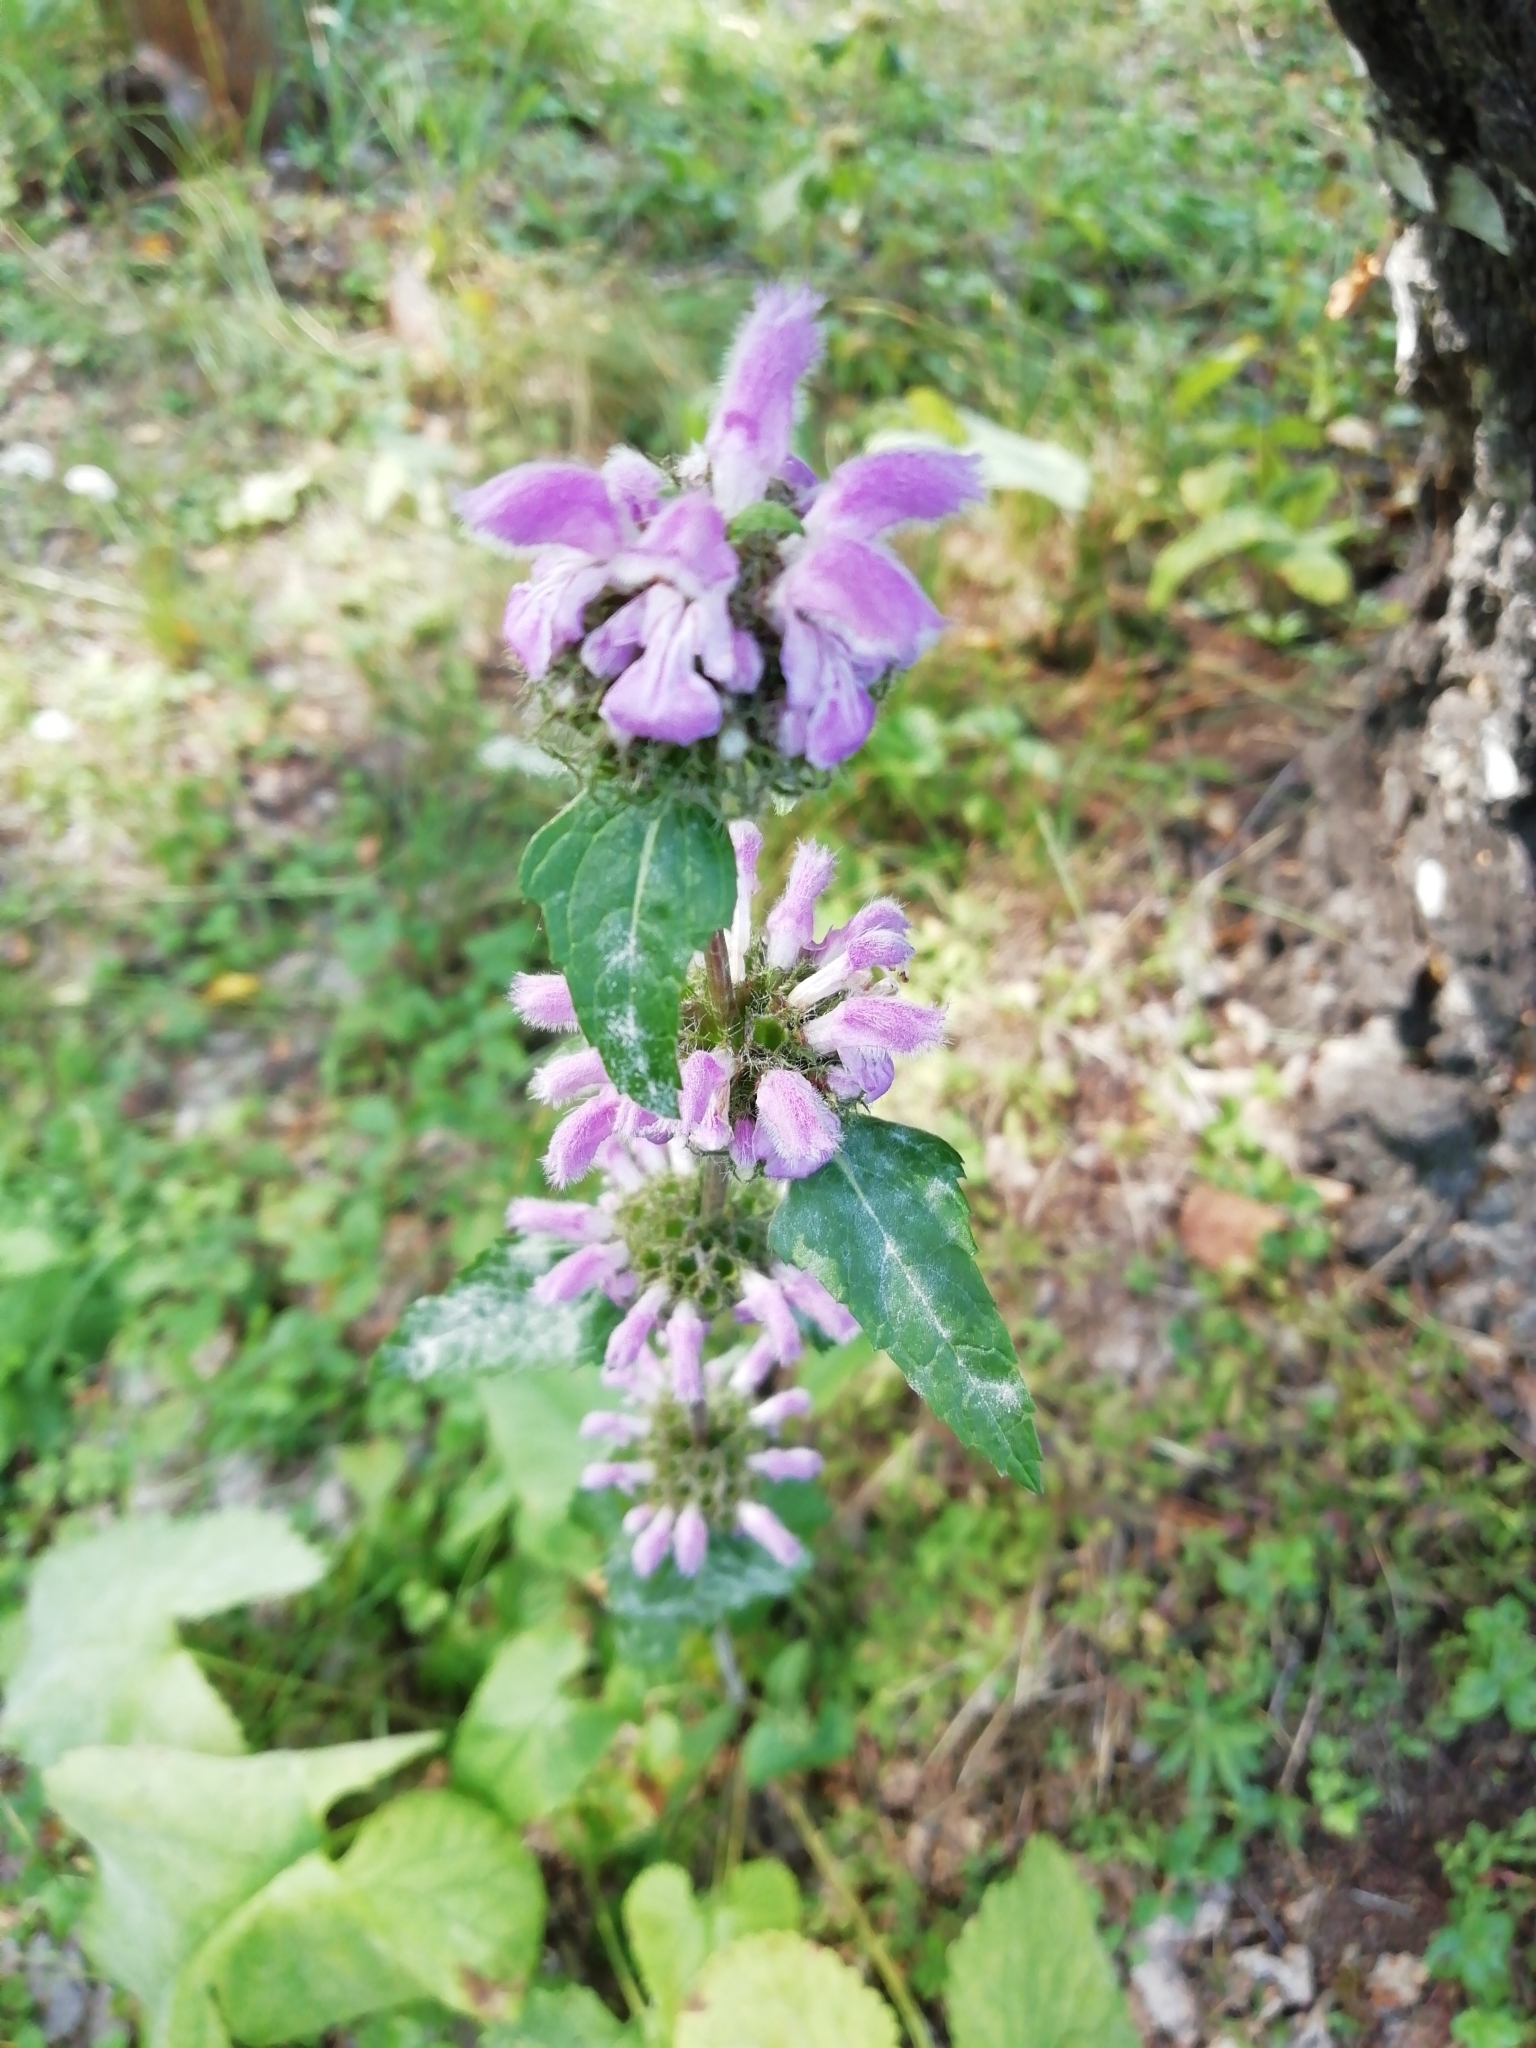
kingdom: Plantae
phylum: Tracheophyta
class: Magnoliopsida
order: Lamiales
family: Lamiaceae
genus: Phlomoides
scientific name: Phlomoides tuberosa
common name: Tuberous jerusalem sage
